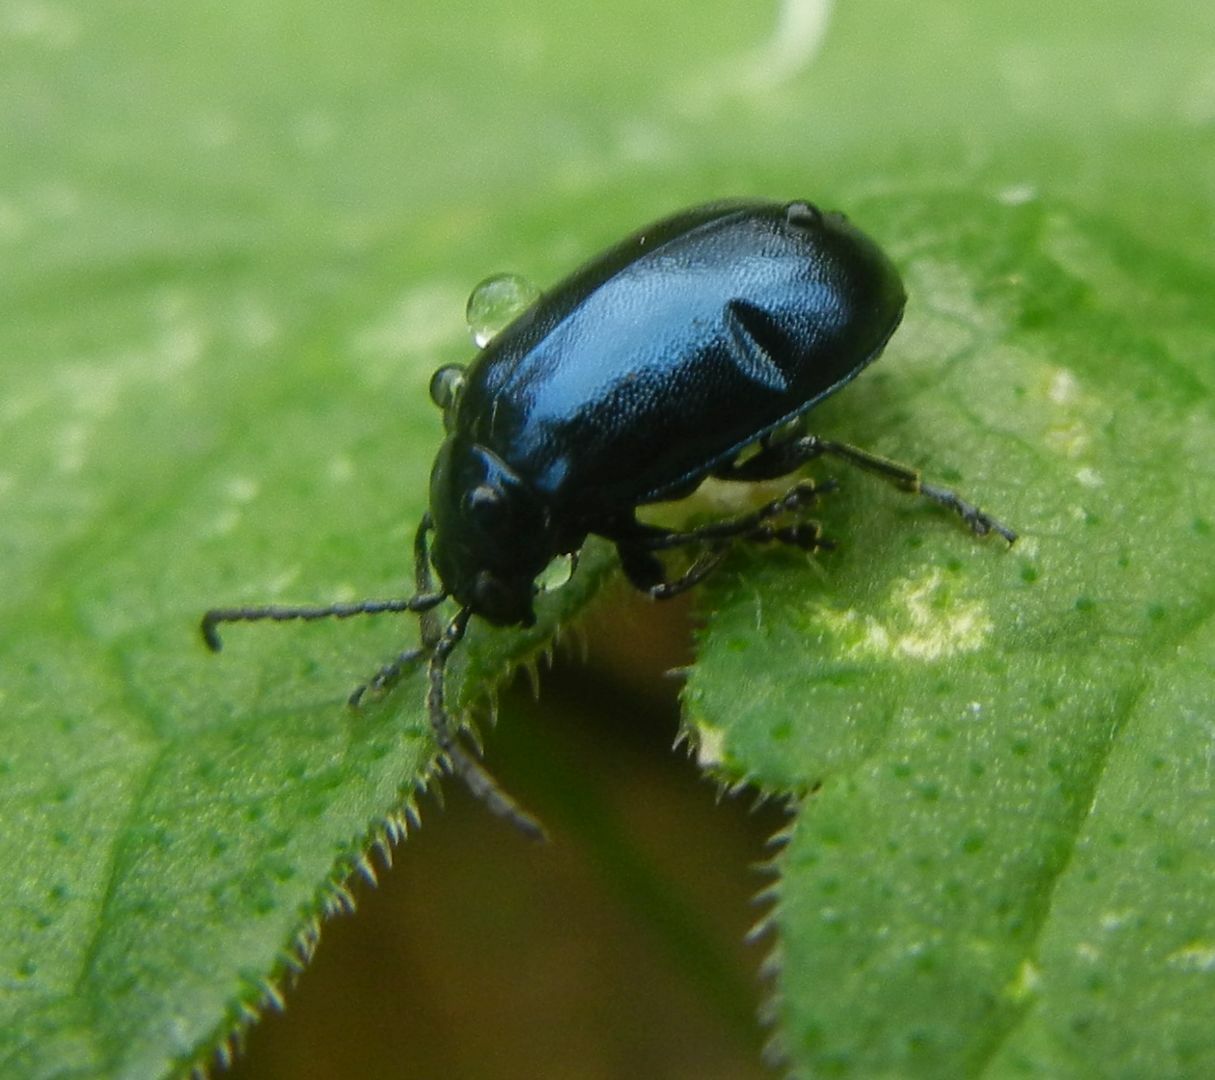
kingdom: Animalia
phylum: Arthropoda
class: Insecta
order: Coleoptera
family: Chrysomelidae
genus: Agelastica
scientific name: Agelastica alni
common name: Alder leaf beetle
